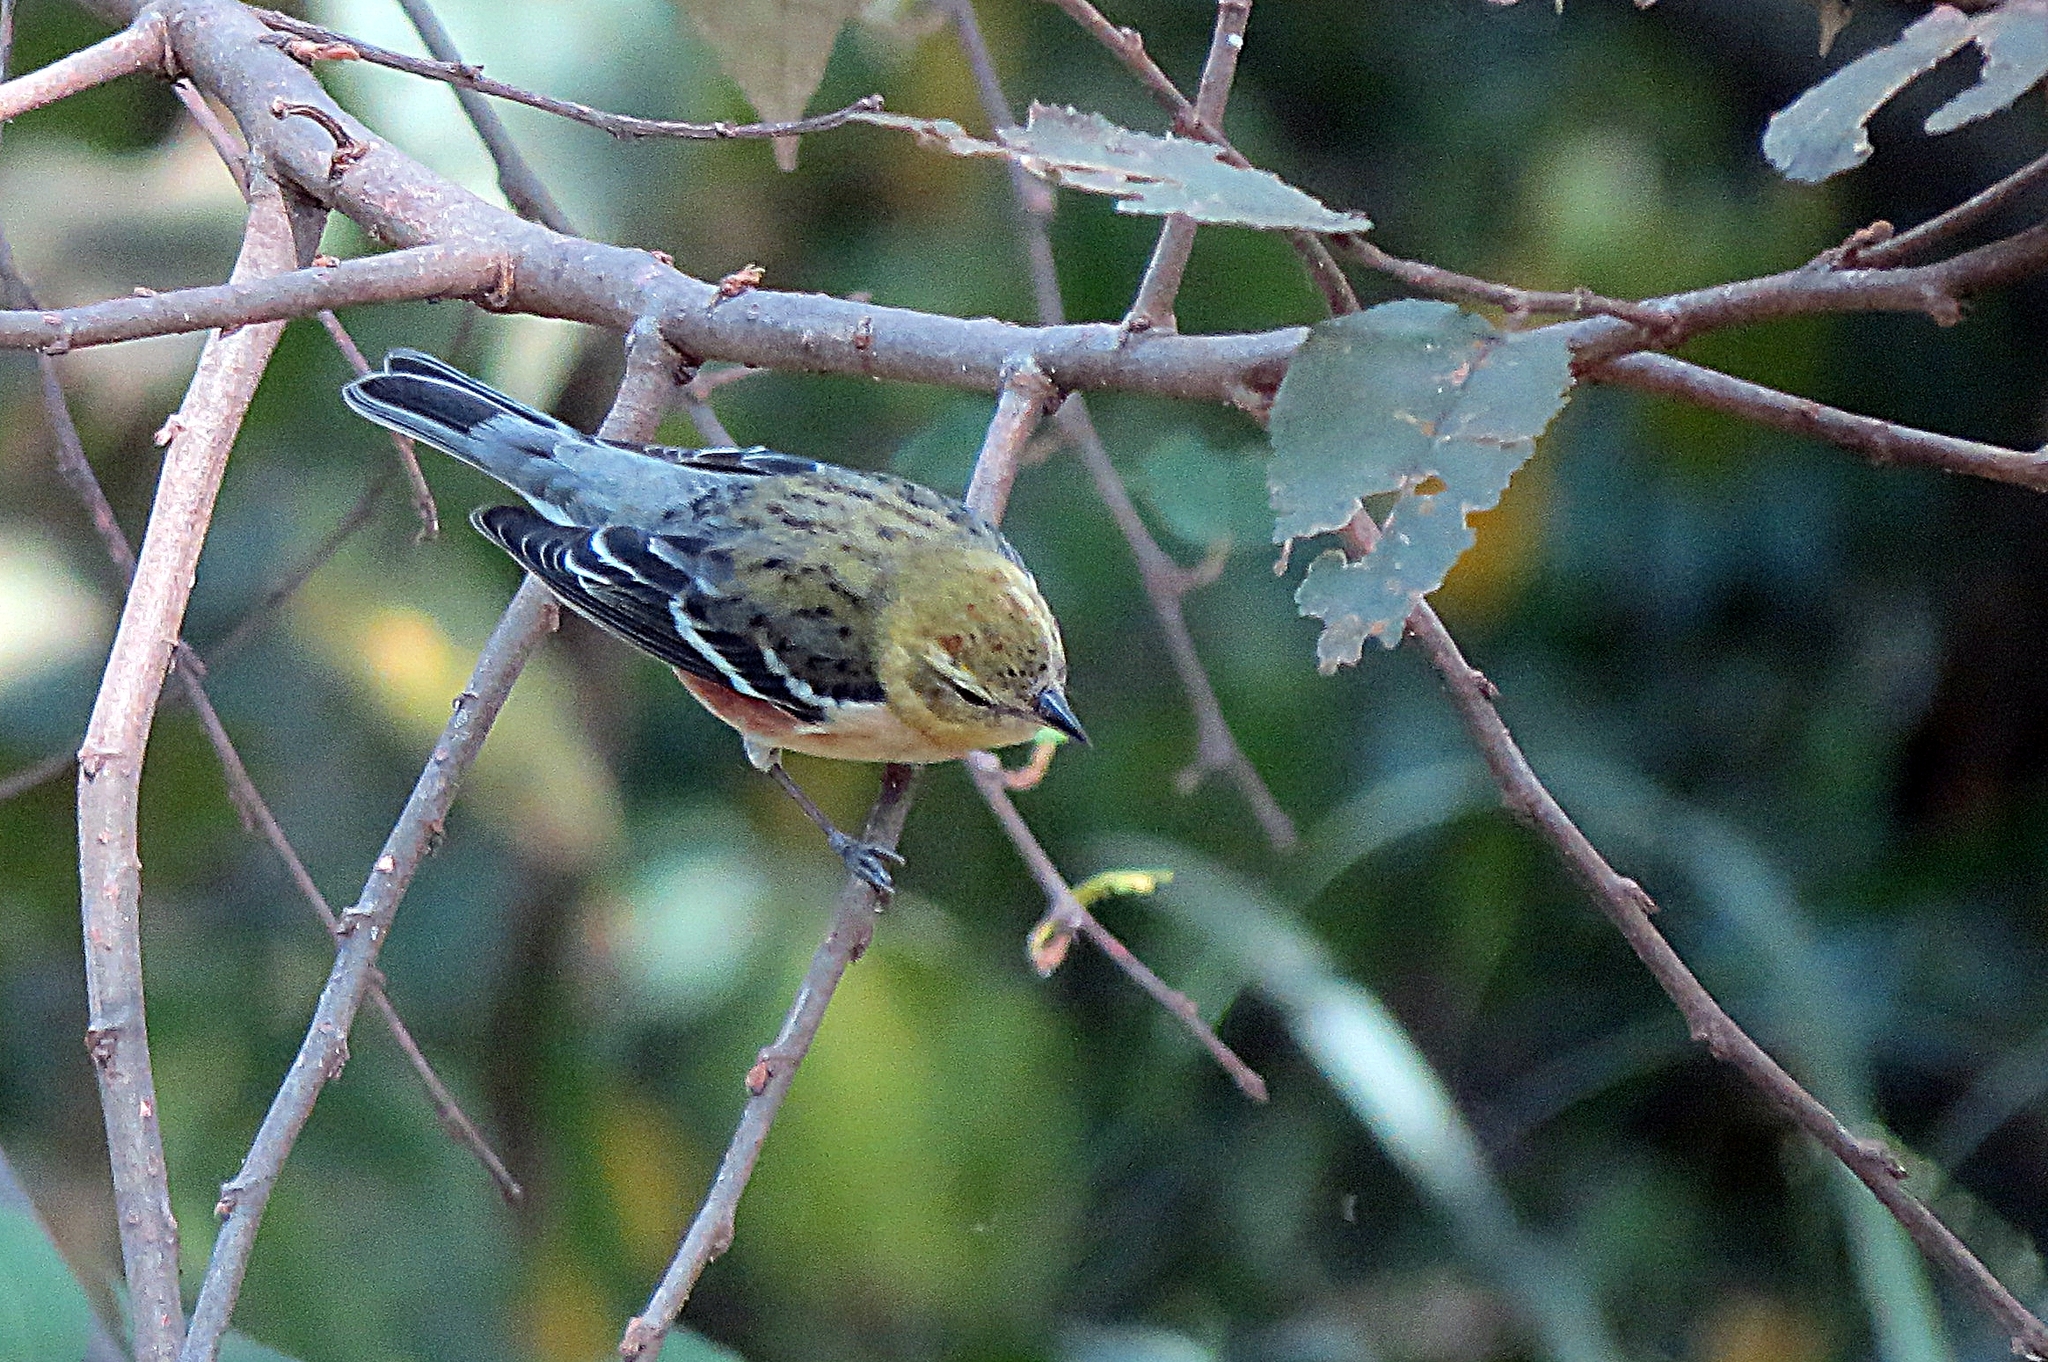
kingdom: Animalia
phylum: Chordata
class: Aves
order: Passeriformes
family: Parulidae
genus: Setophaga
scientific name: Setophaga castanea
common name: Bay-breasted warbler
